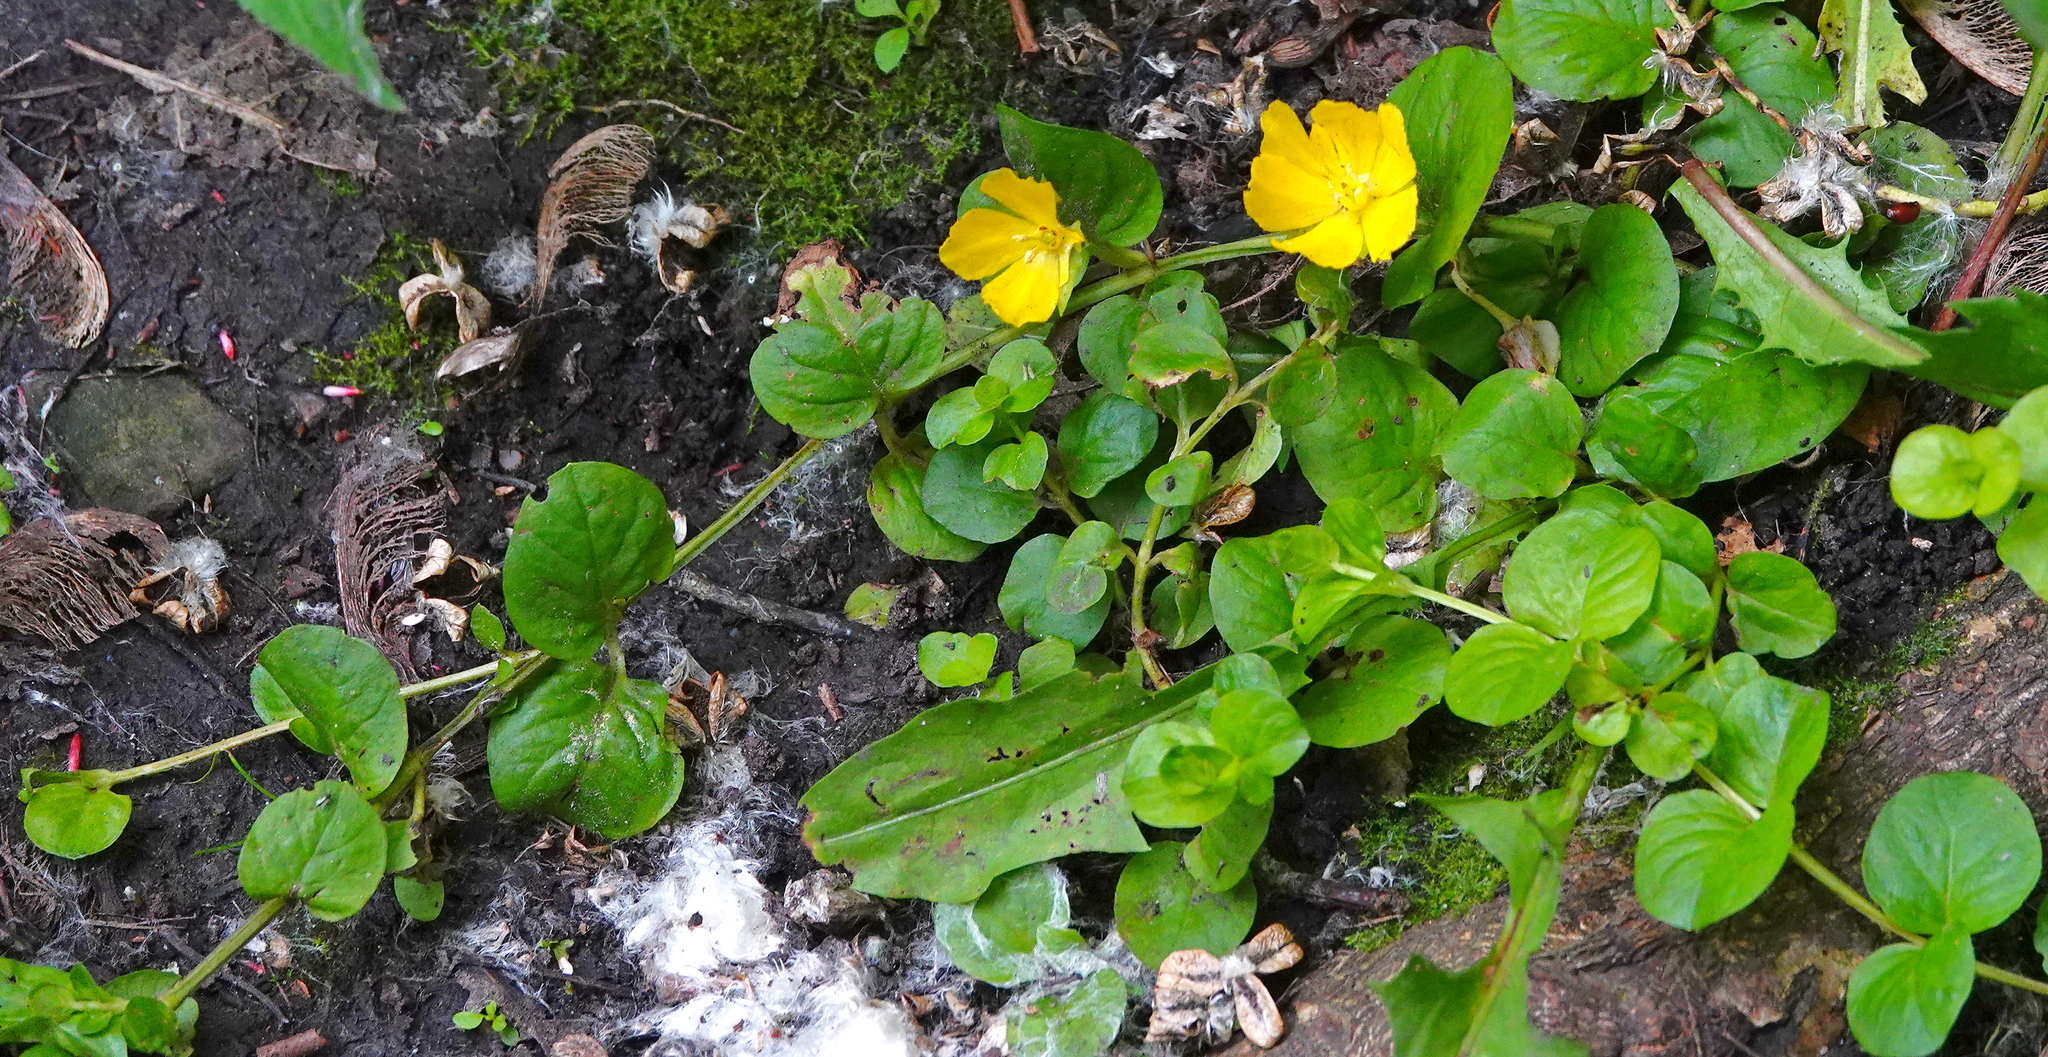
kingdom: Plantae
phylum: Tracheophyta
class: Magnoliopsida
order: Ericales
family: Primulaceae
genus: Lysimachia
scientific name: Lysimachia nummularia
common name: Moneywort
